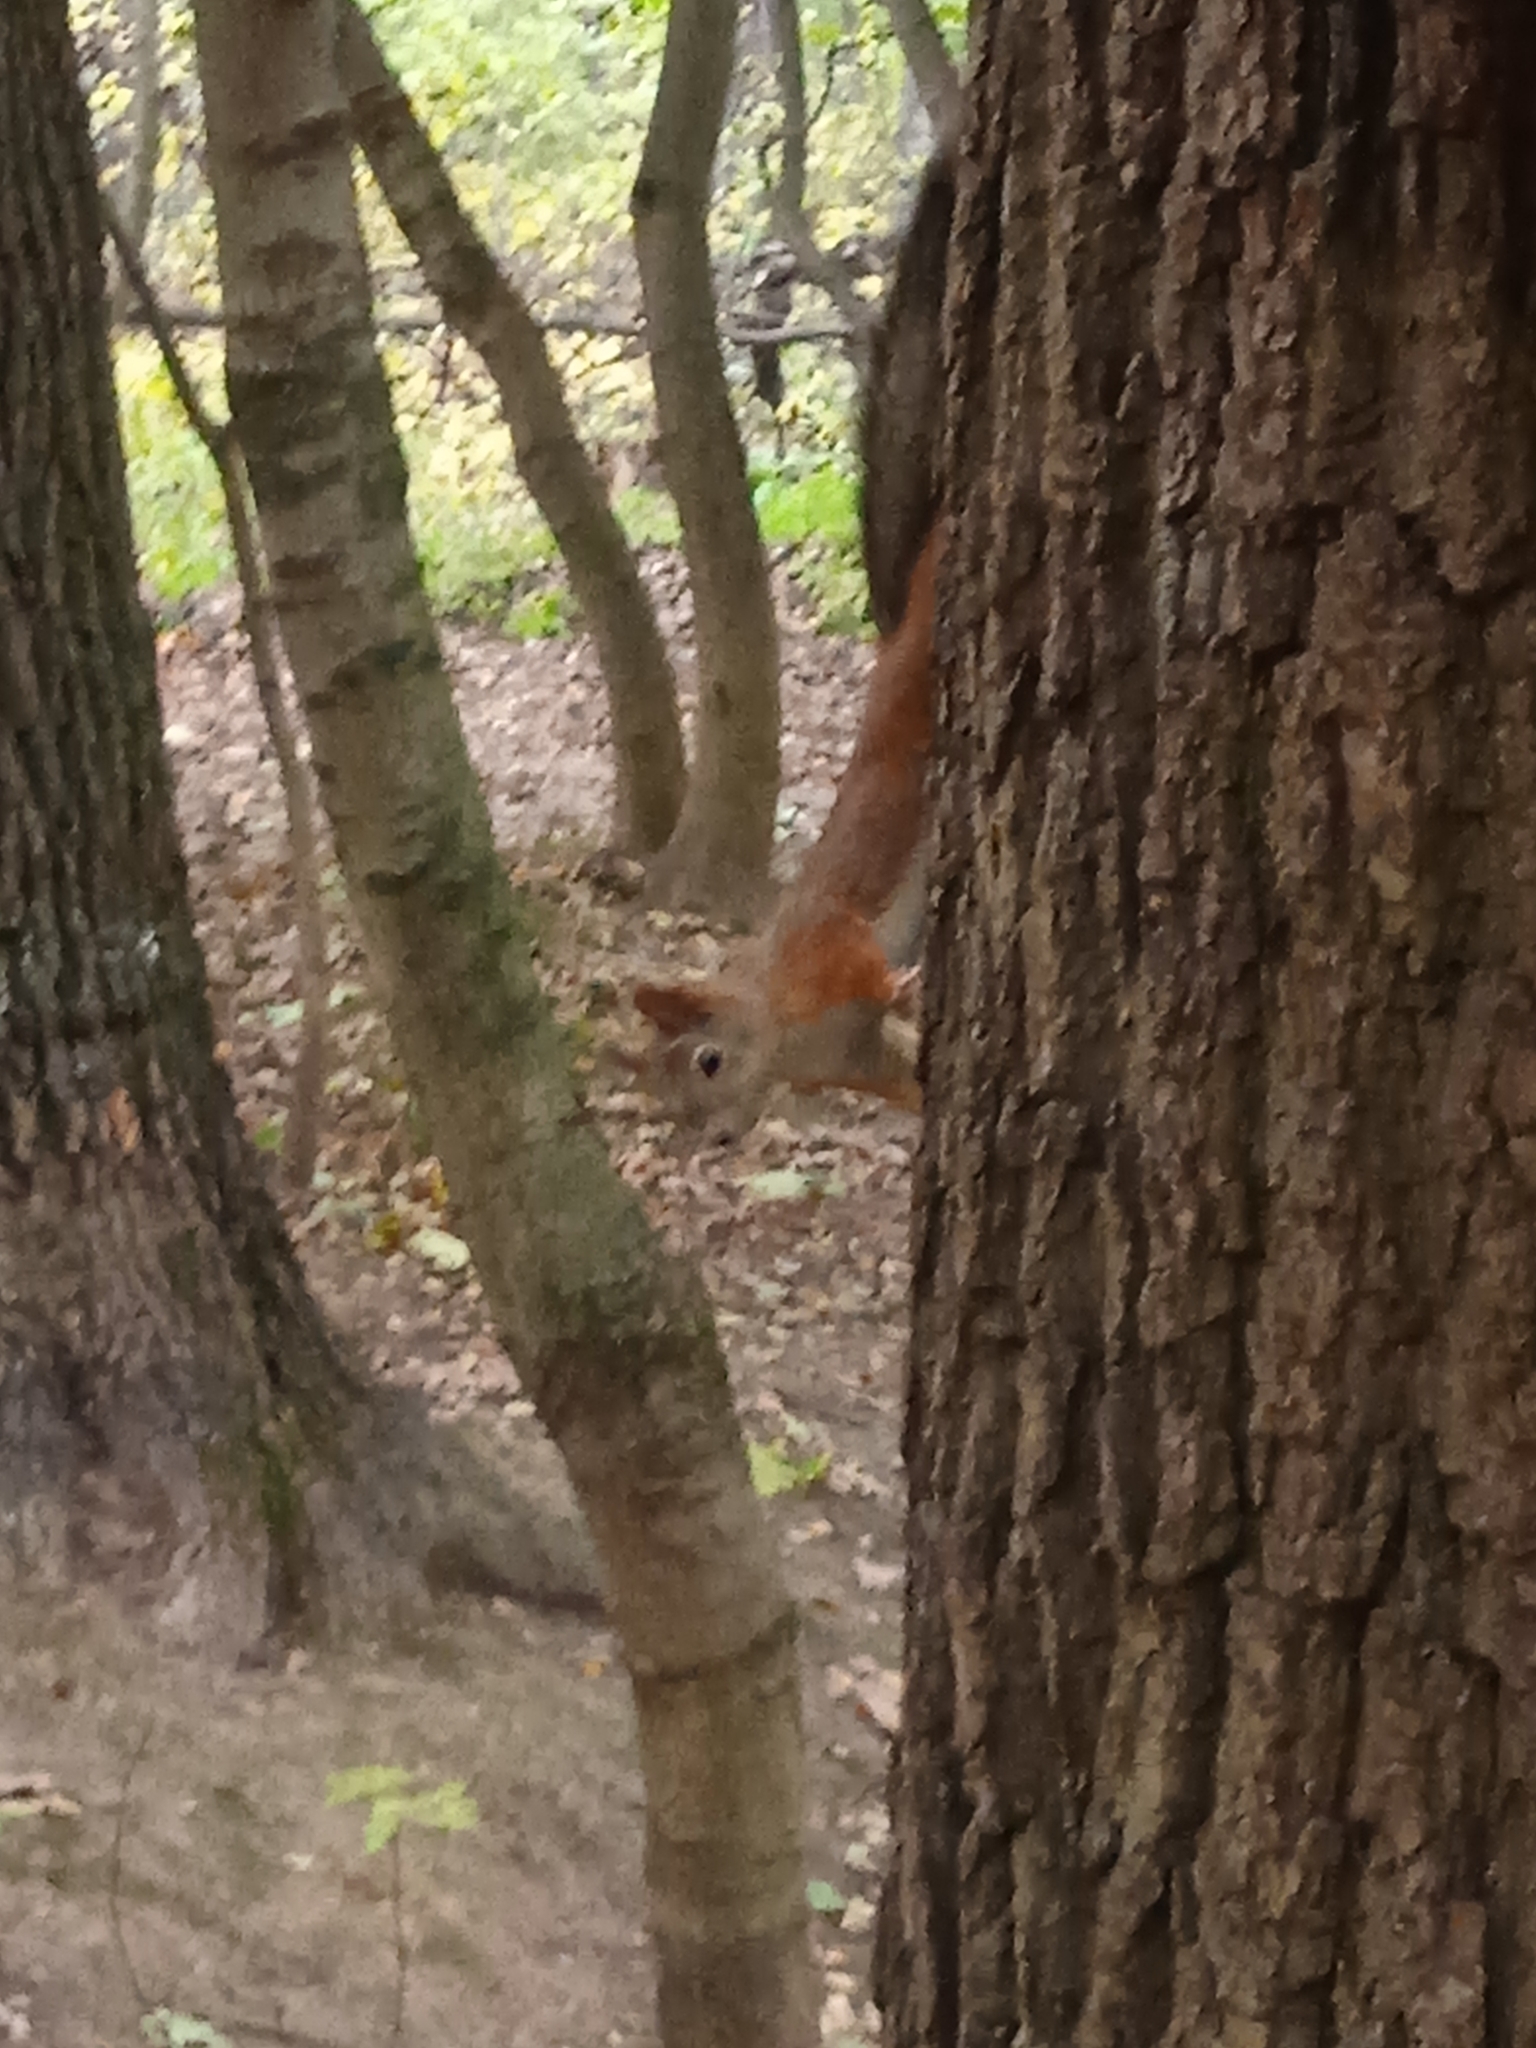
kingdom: Animalia
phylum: Chordata
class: Mammalia
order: Rodentia
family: Sciuridae
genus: Sciurus
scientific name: Sciurus vulgaris
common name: Eurasian red squirrel
